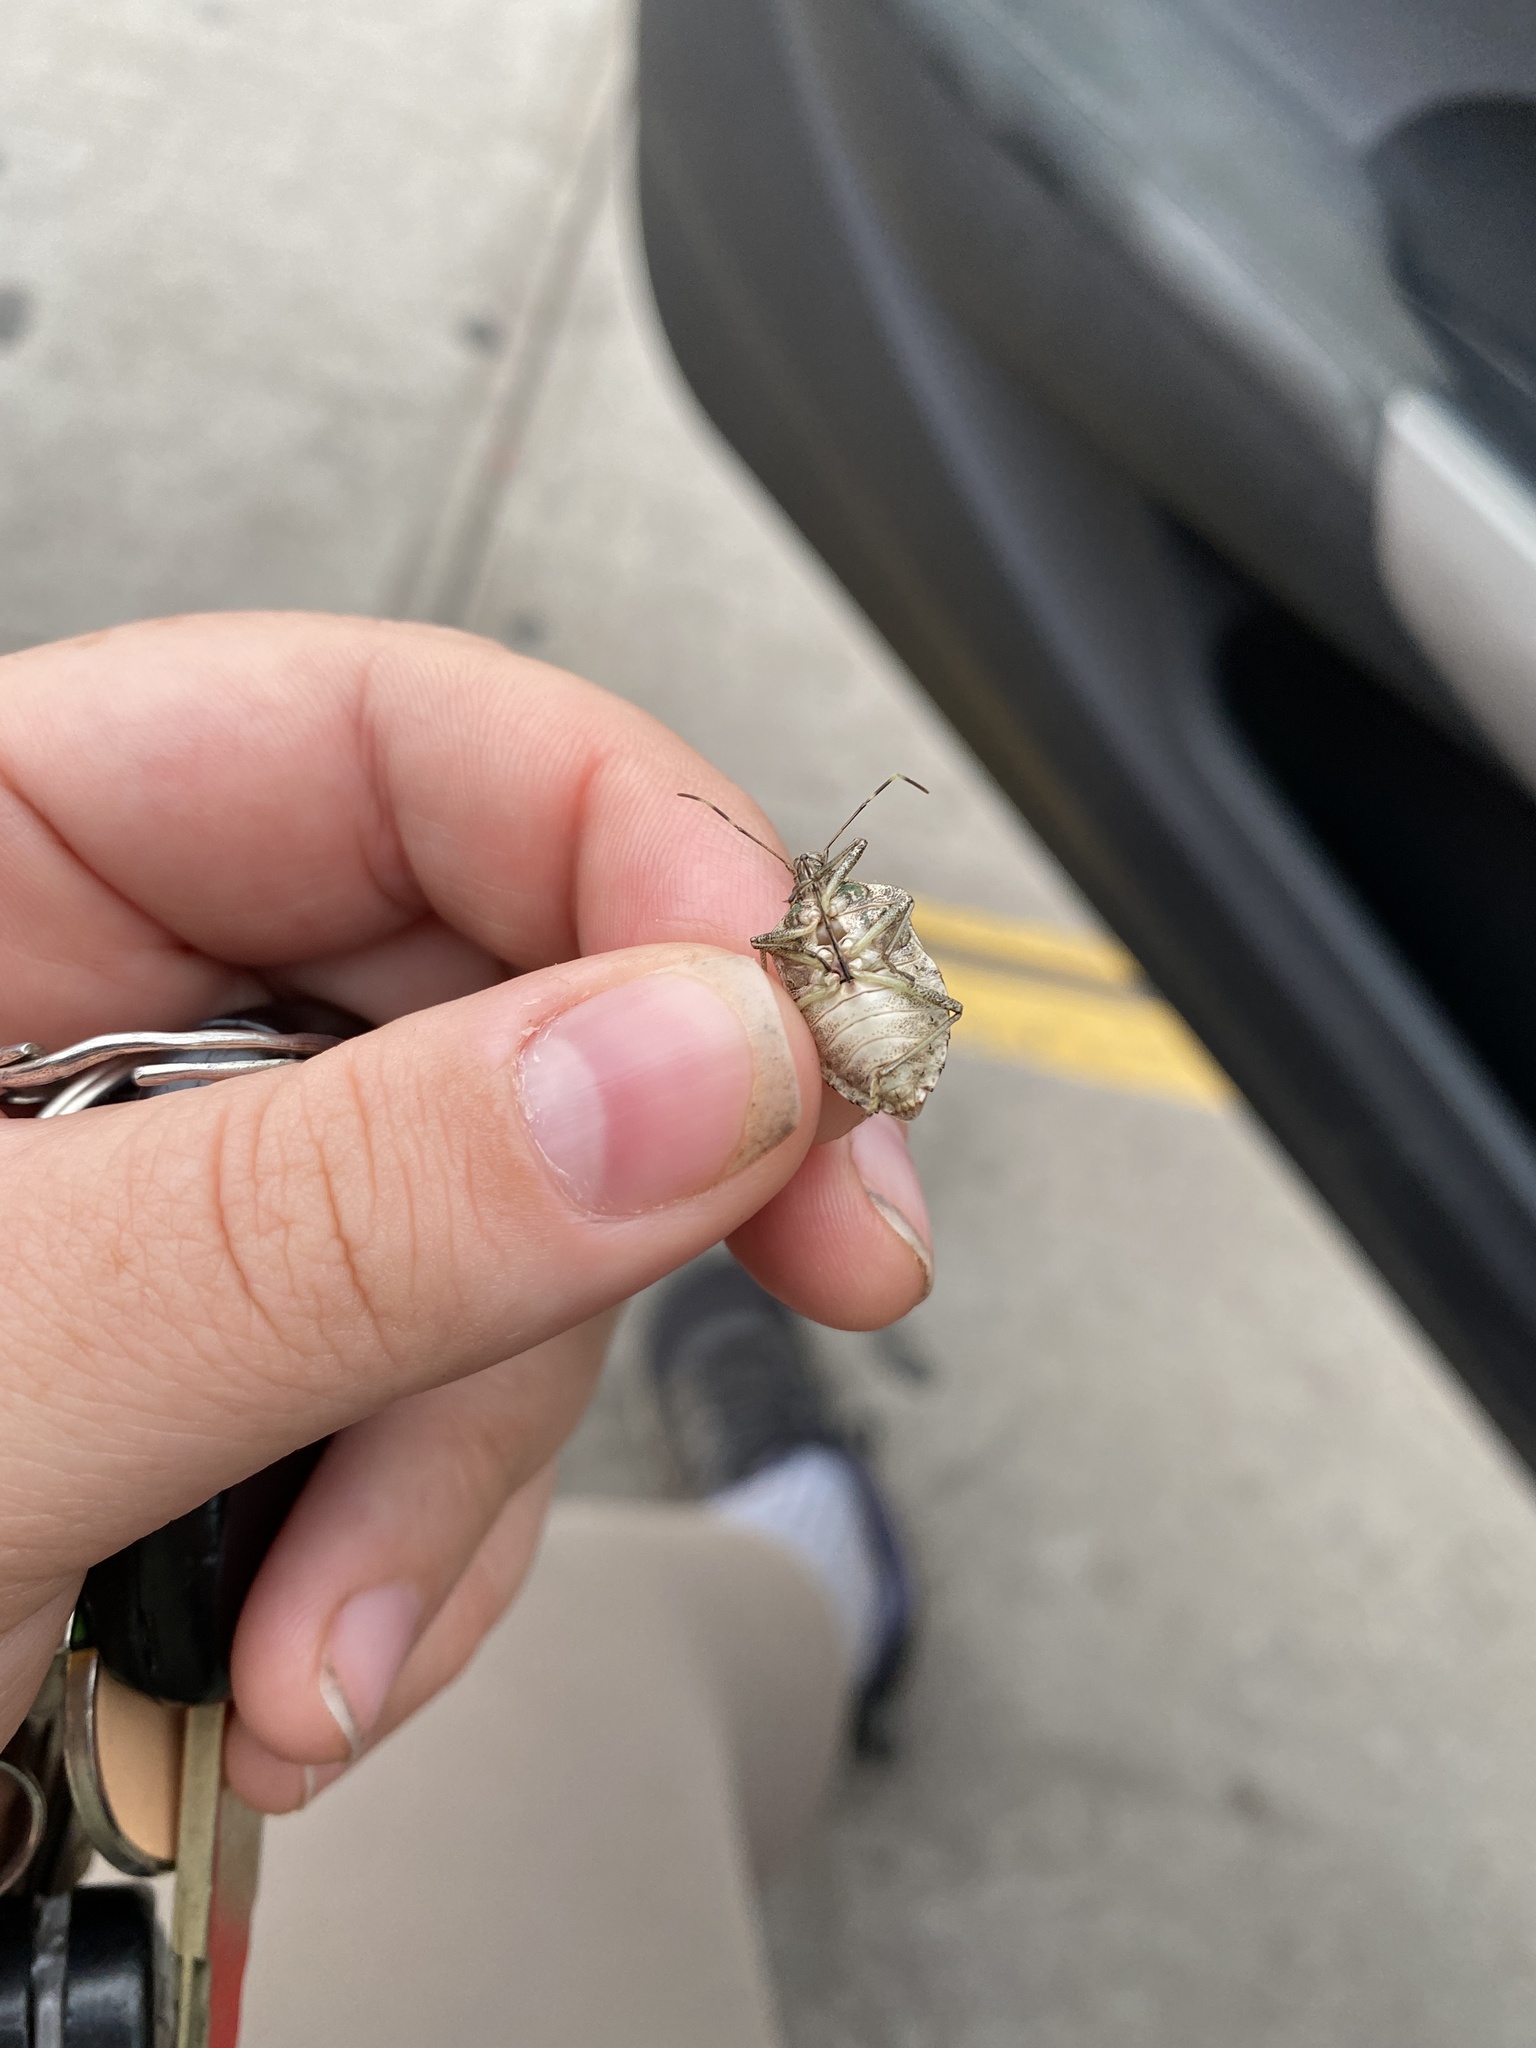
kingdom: Animalia
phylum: Arthropoda
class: Insecta
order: Hemiptera
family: Pentatomidae
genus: Halyomorpha
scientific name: Halyomorpha halys
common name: Brown marmorated stink bug
